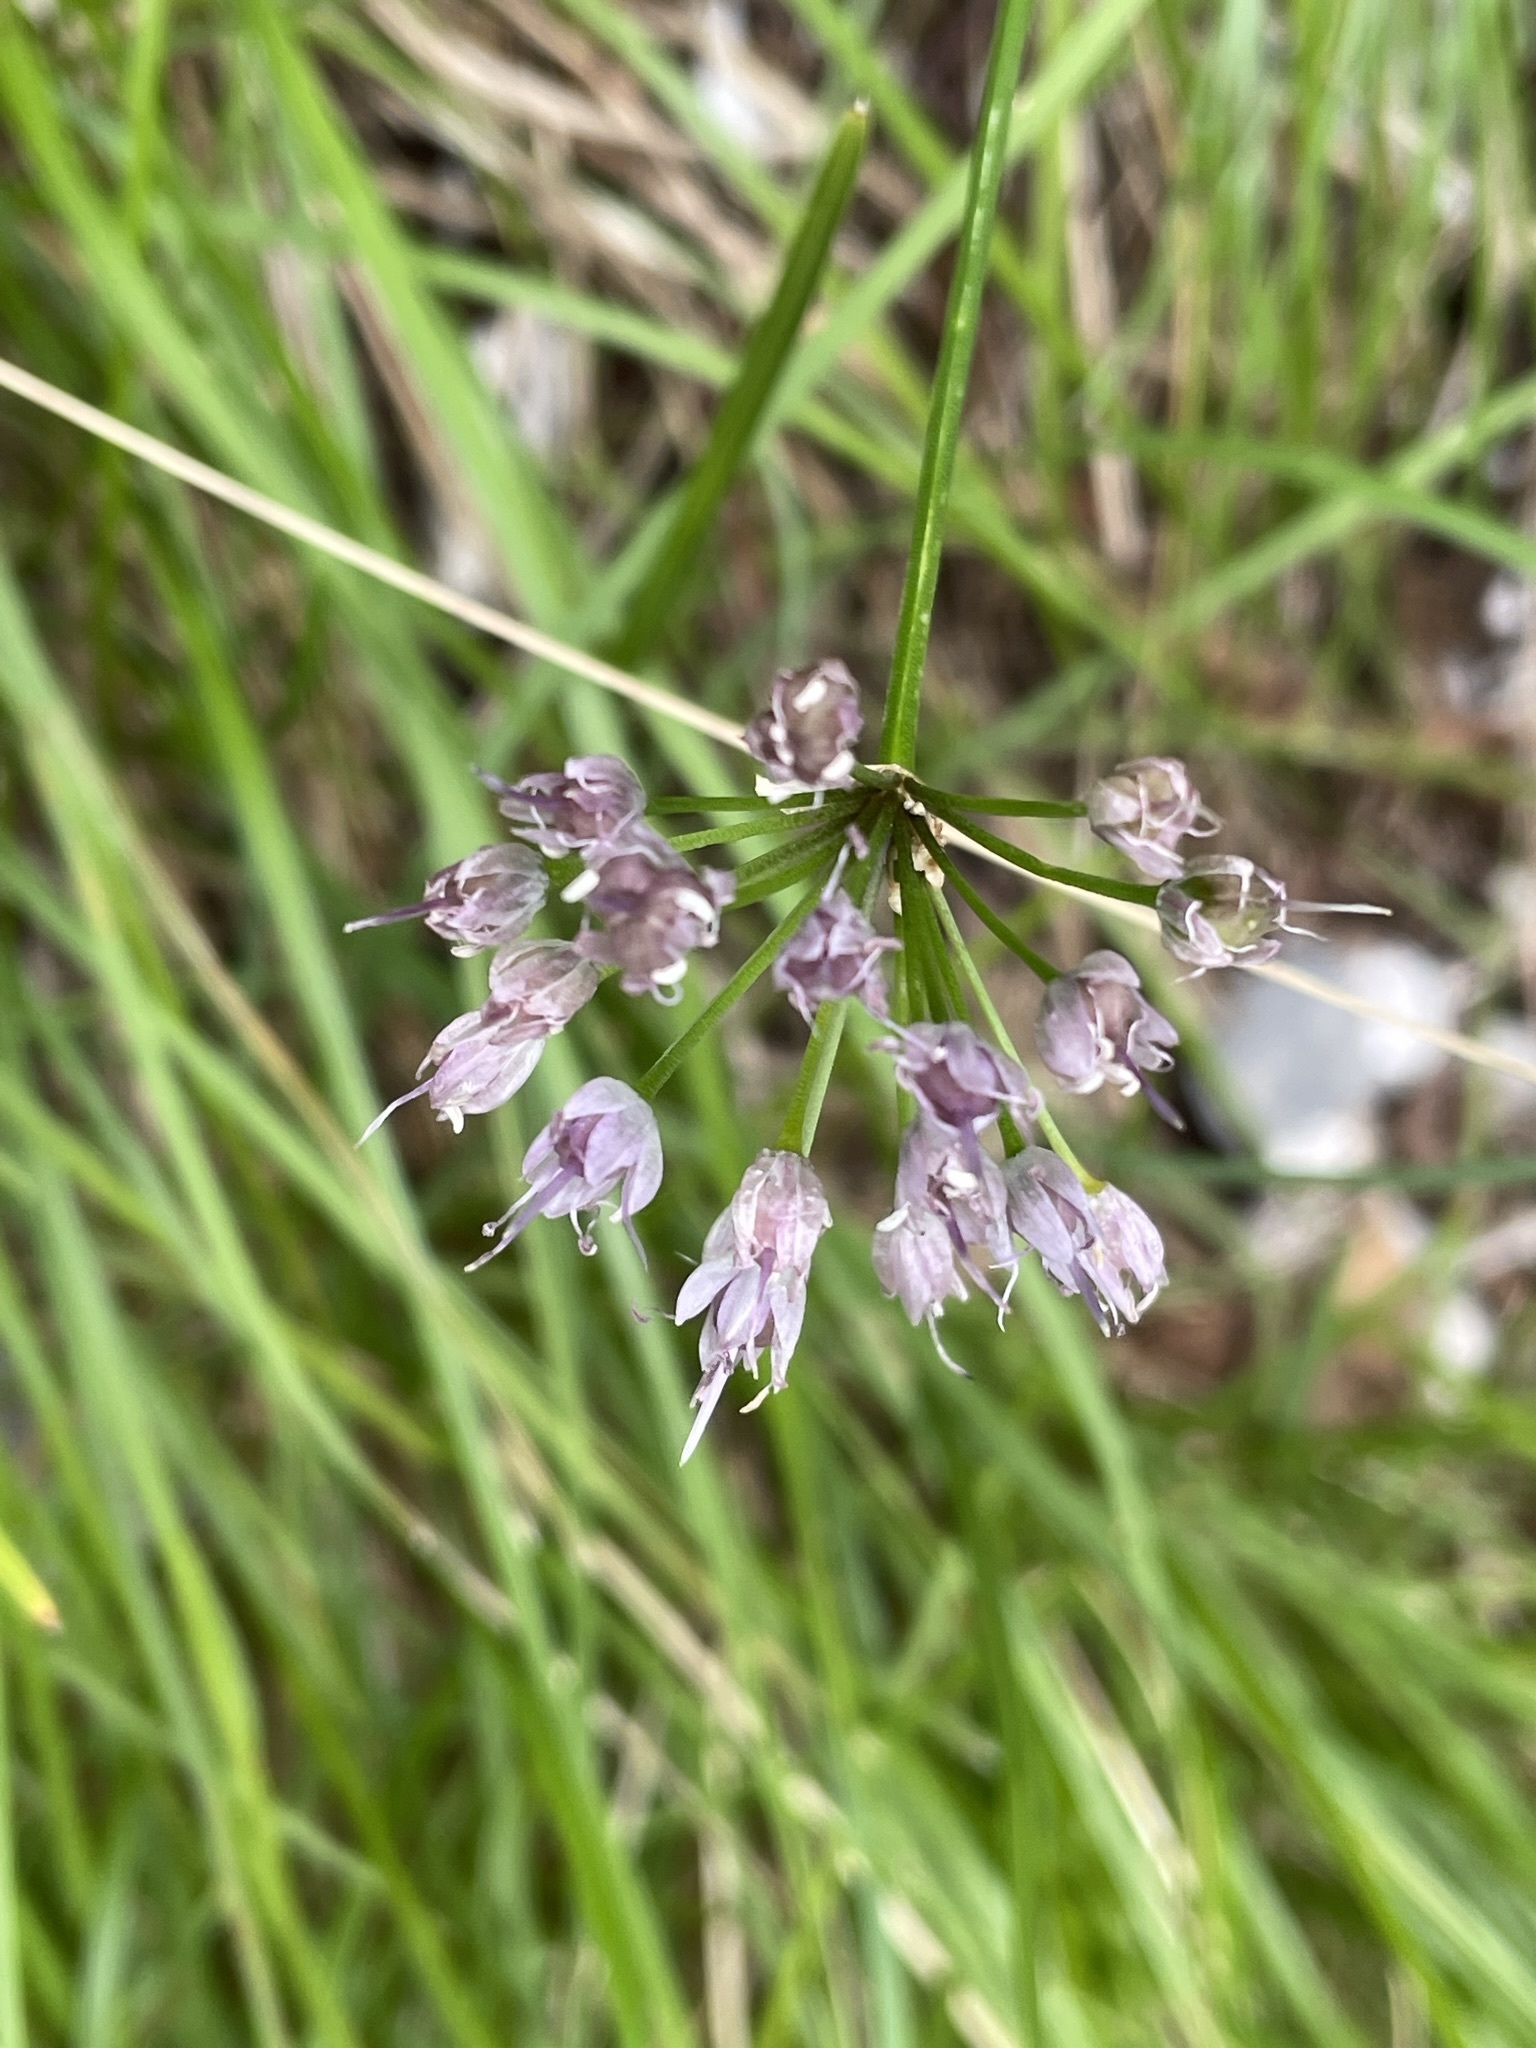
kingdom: Plantae
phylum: Tracheophyta
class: Liliopsida
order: Asparagales
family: Amaryllidaceae
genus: Allium
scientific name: Allium lusitanicum
